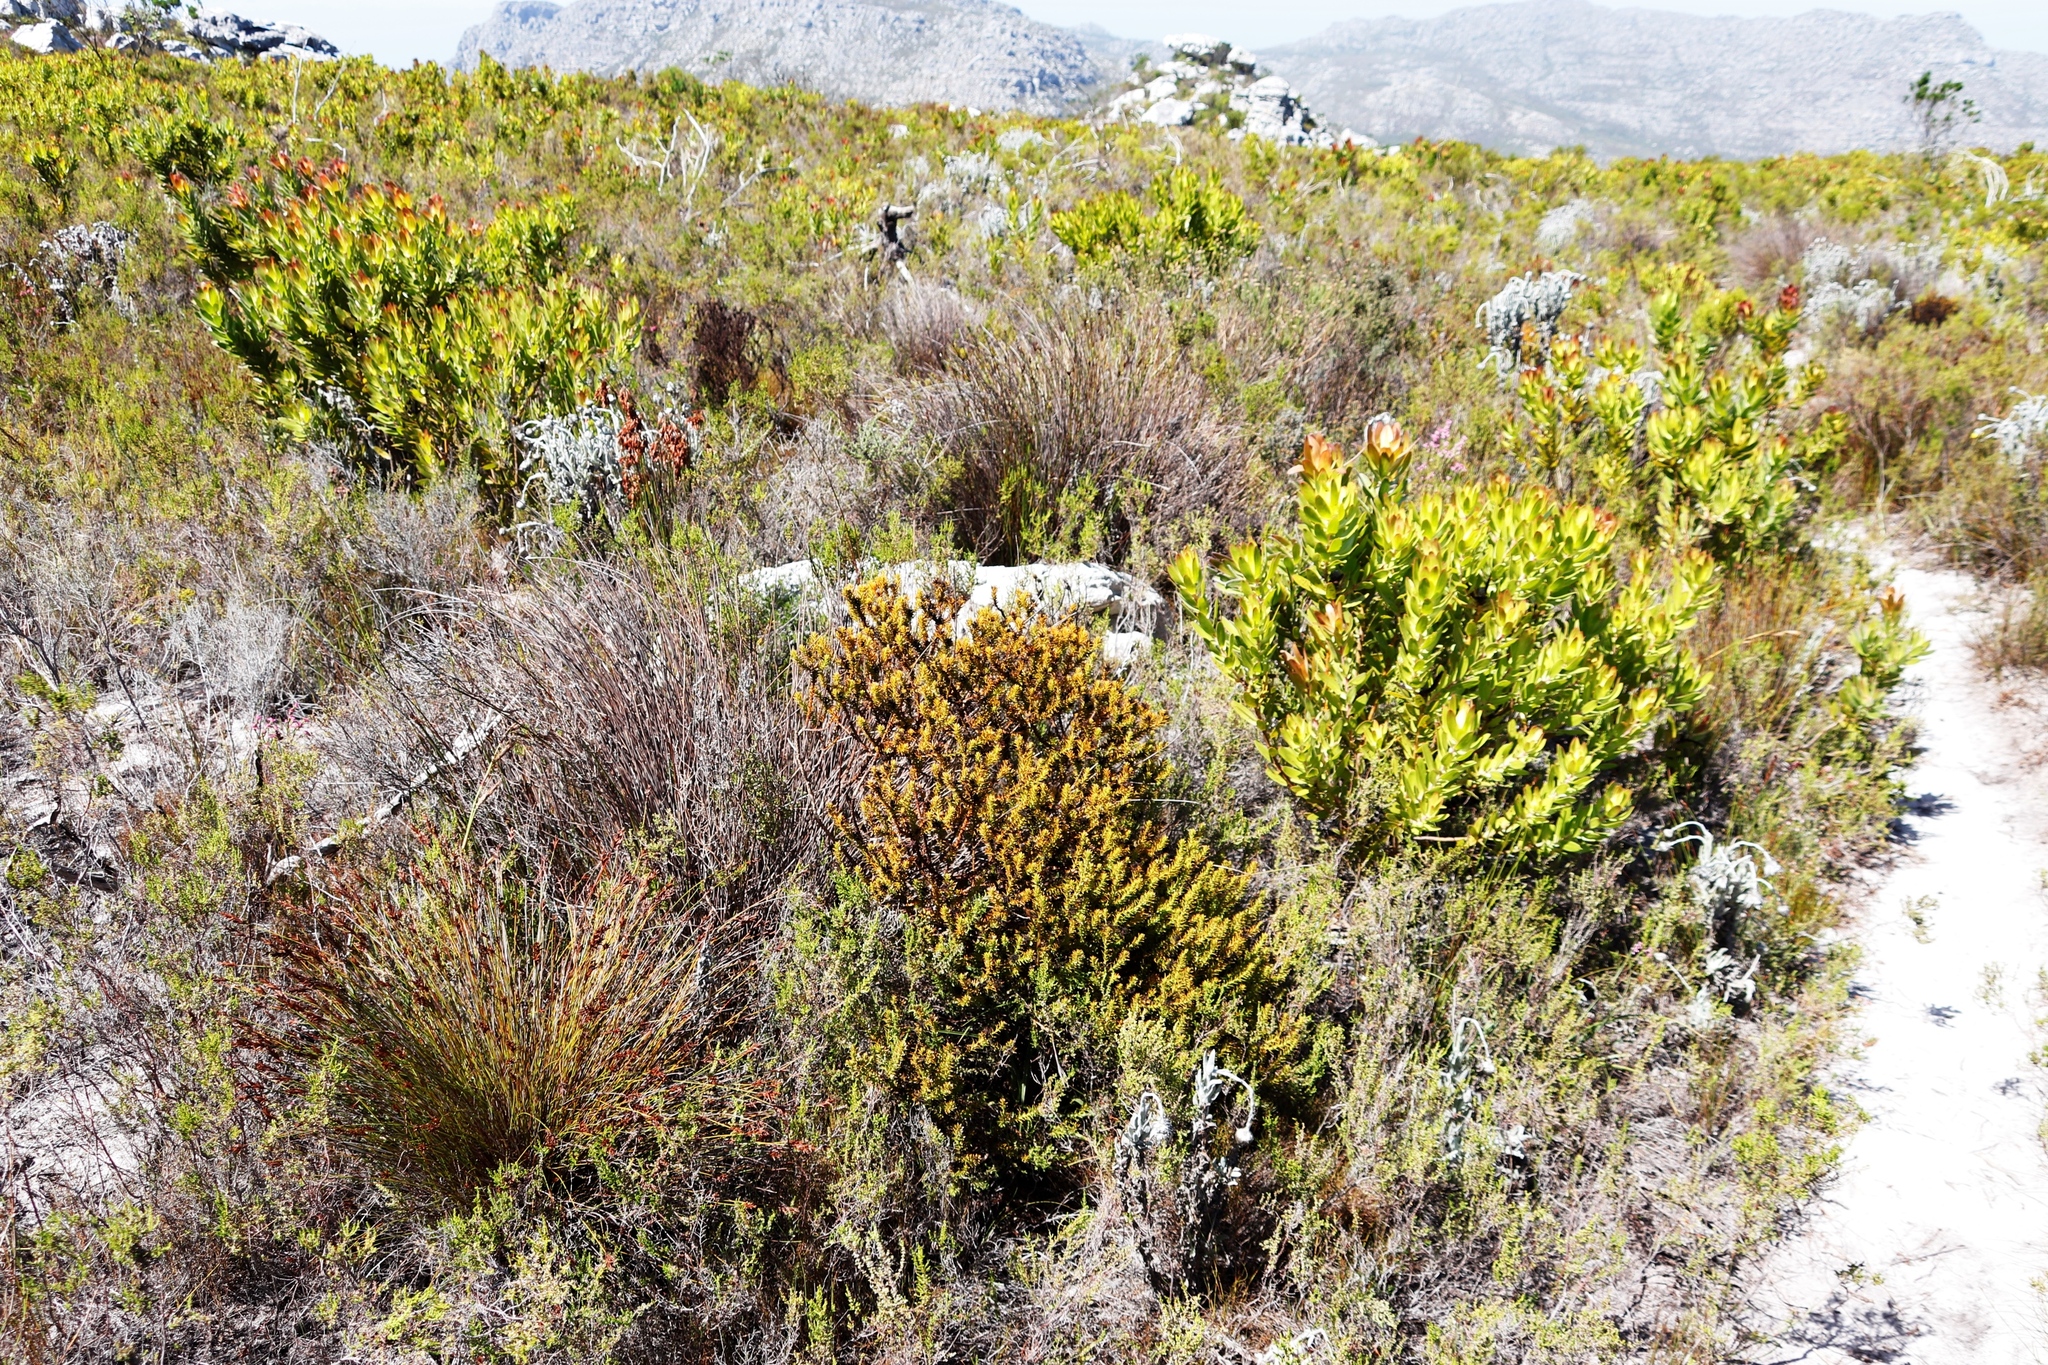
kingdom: Plantae
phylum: Tracheophyta
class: Magnoliopsida
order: Proteales
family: Proteaceae
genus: Leucadendron
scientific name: Leucadendron laureolum
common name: Golden sunshinebush
